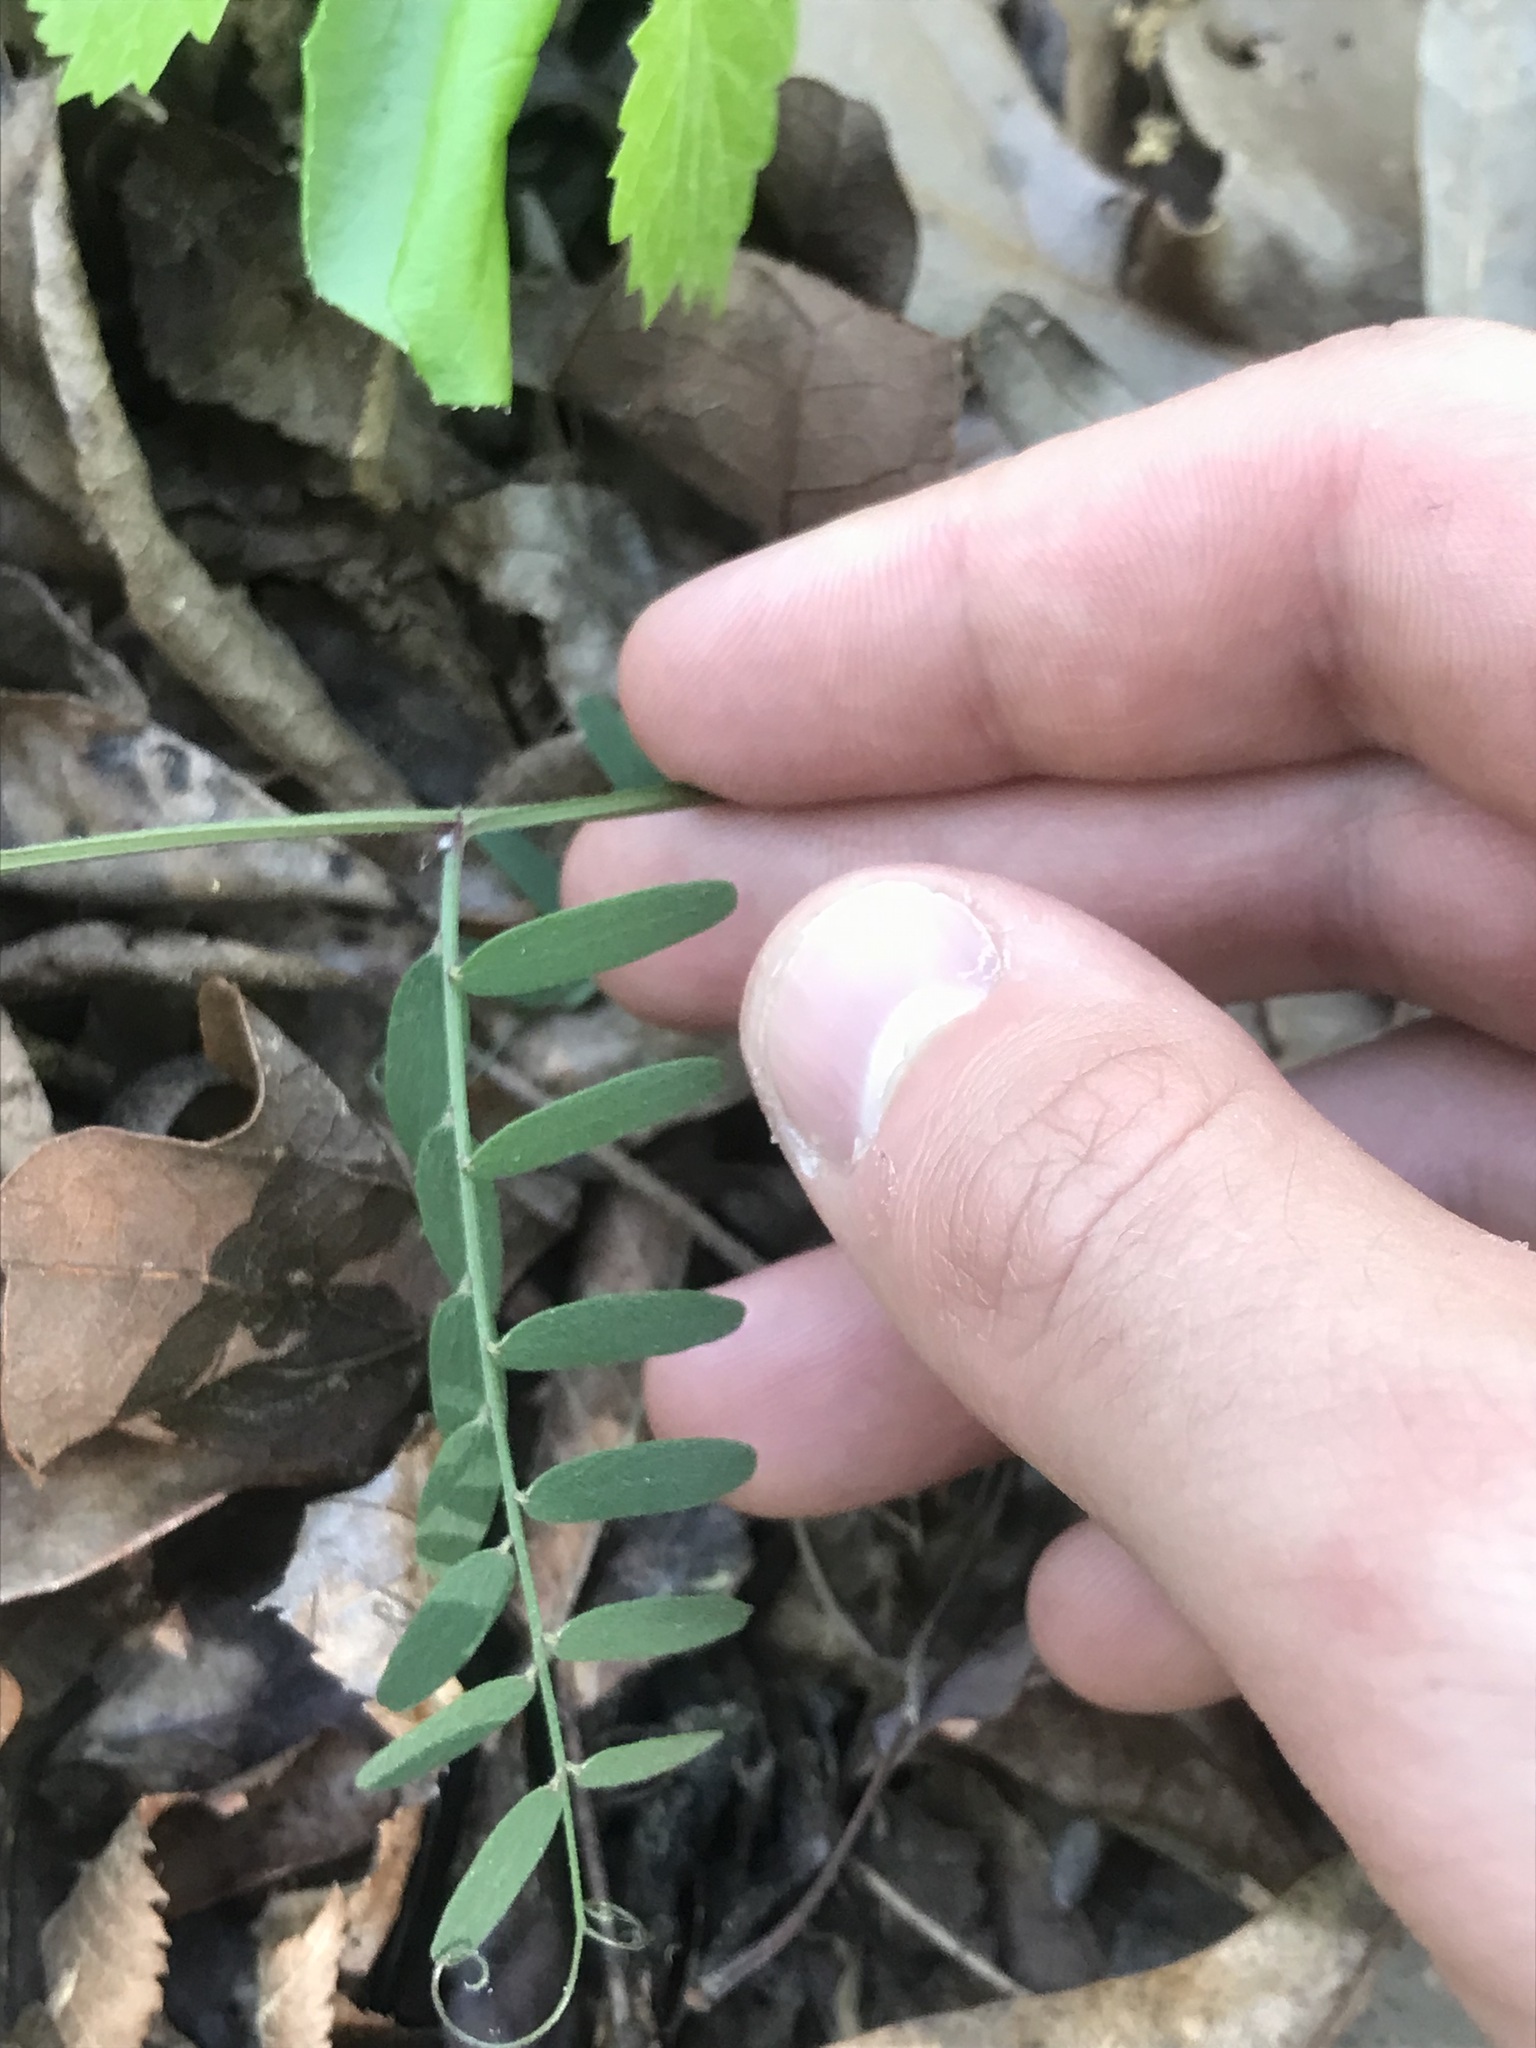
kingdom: Plantae
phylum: Tracheophyta
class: Magnoliopsida
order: Fabales
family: Fabaceae
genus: Vicia
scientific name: Vicia caroliniana
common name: Carolina vetch
